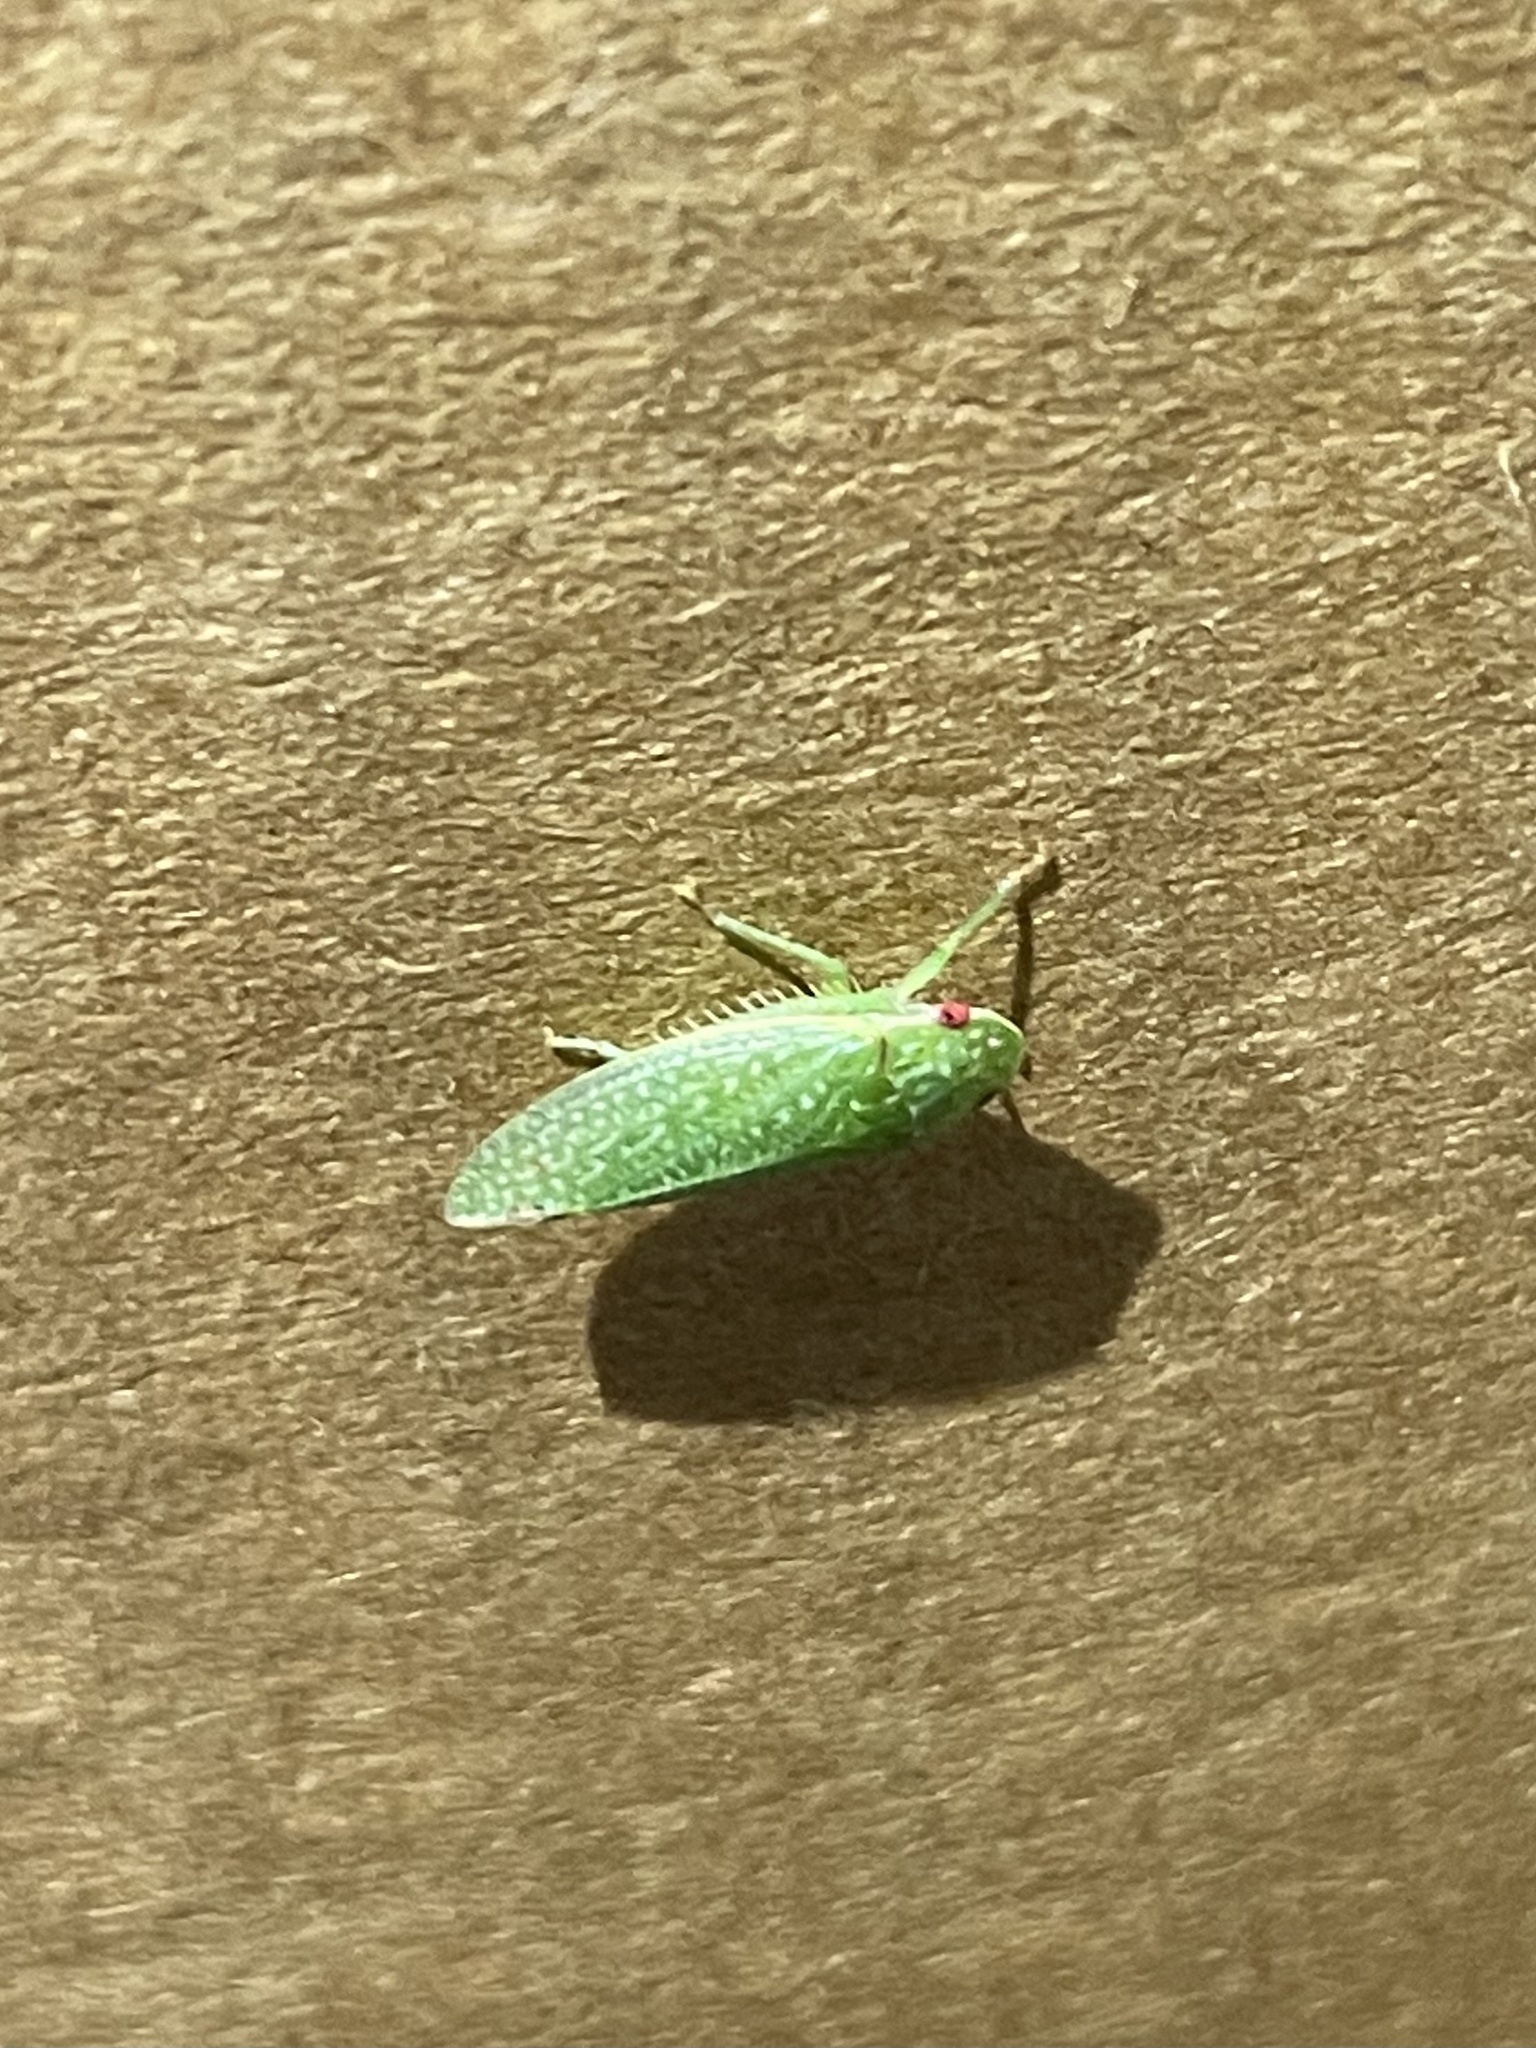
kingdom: Animalia
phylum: Arthropoda
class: Insecta
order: Hemiptera
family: Cicadellidae
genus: Rugosana
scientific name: Rugosana querci
